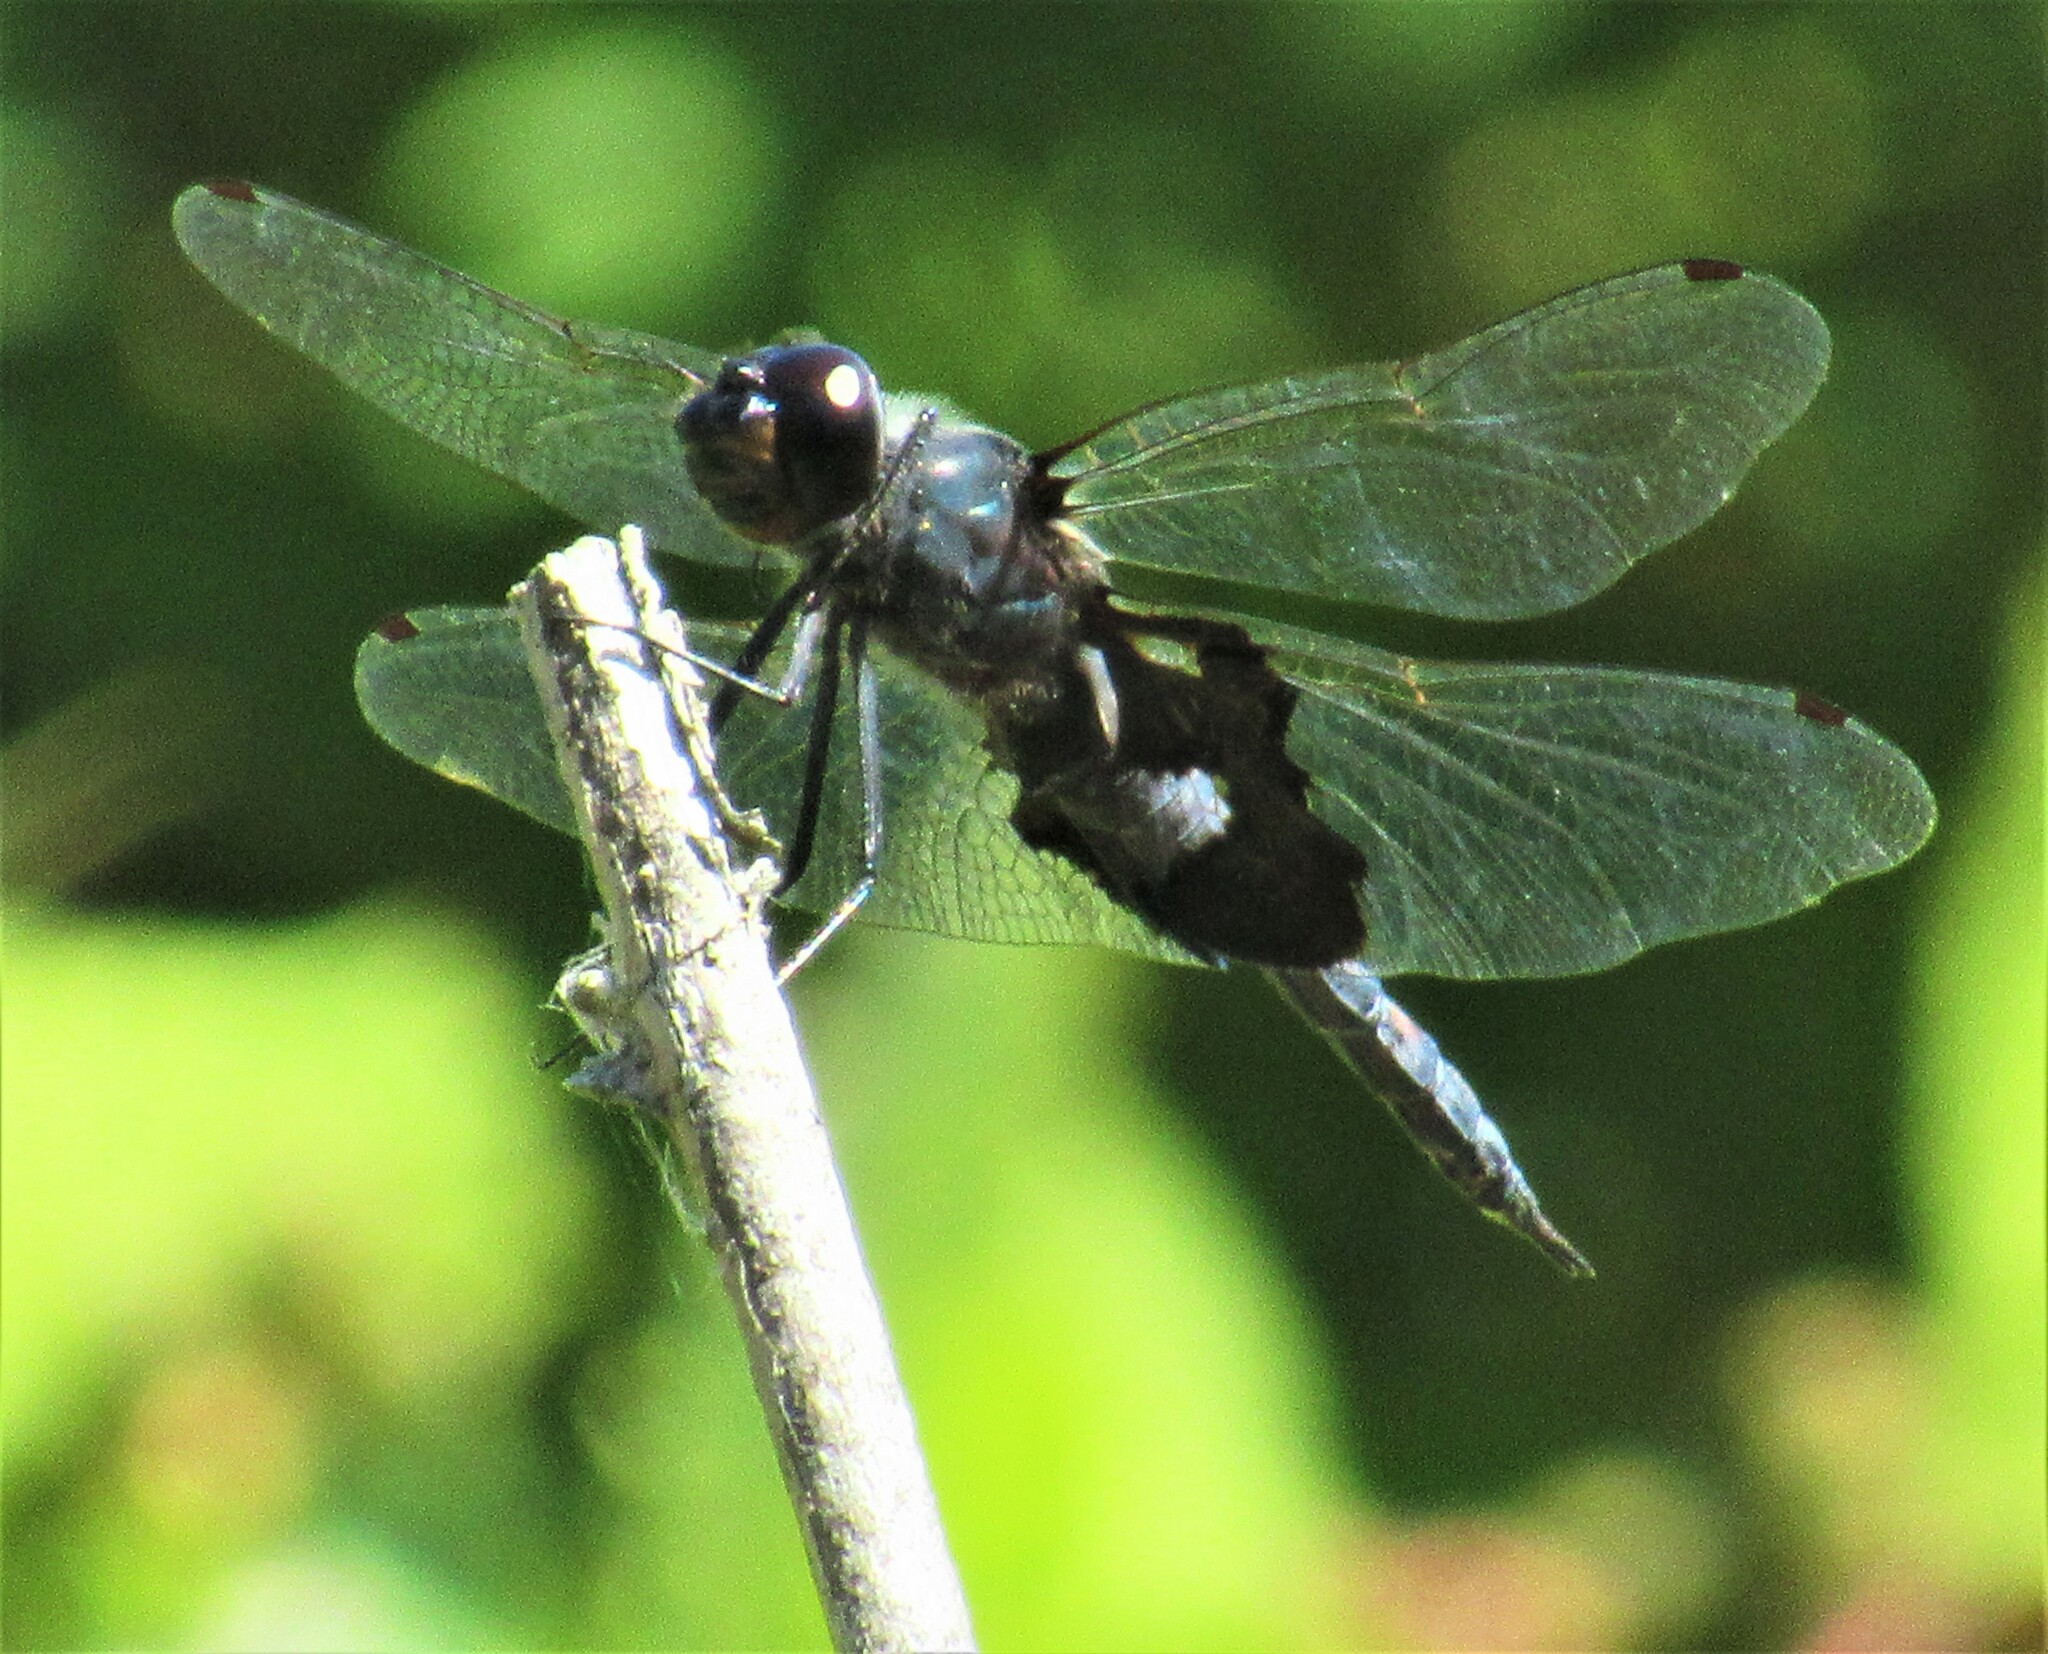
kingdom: Animalia
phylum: Arthropoda
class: Insecta
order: Odonata
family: Libellulidae
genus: Tramea
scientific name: Tramea lacerata
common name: Black saddlebags
